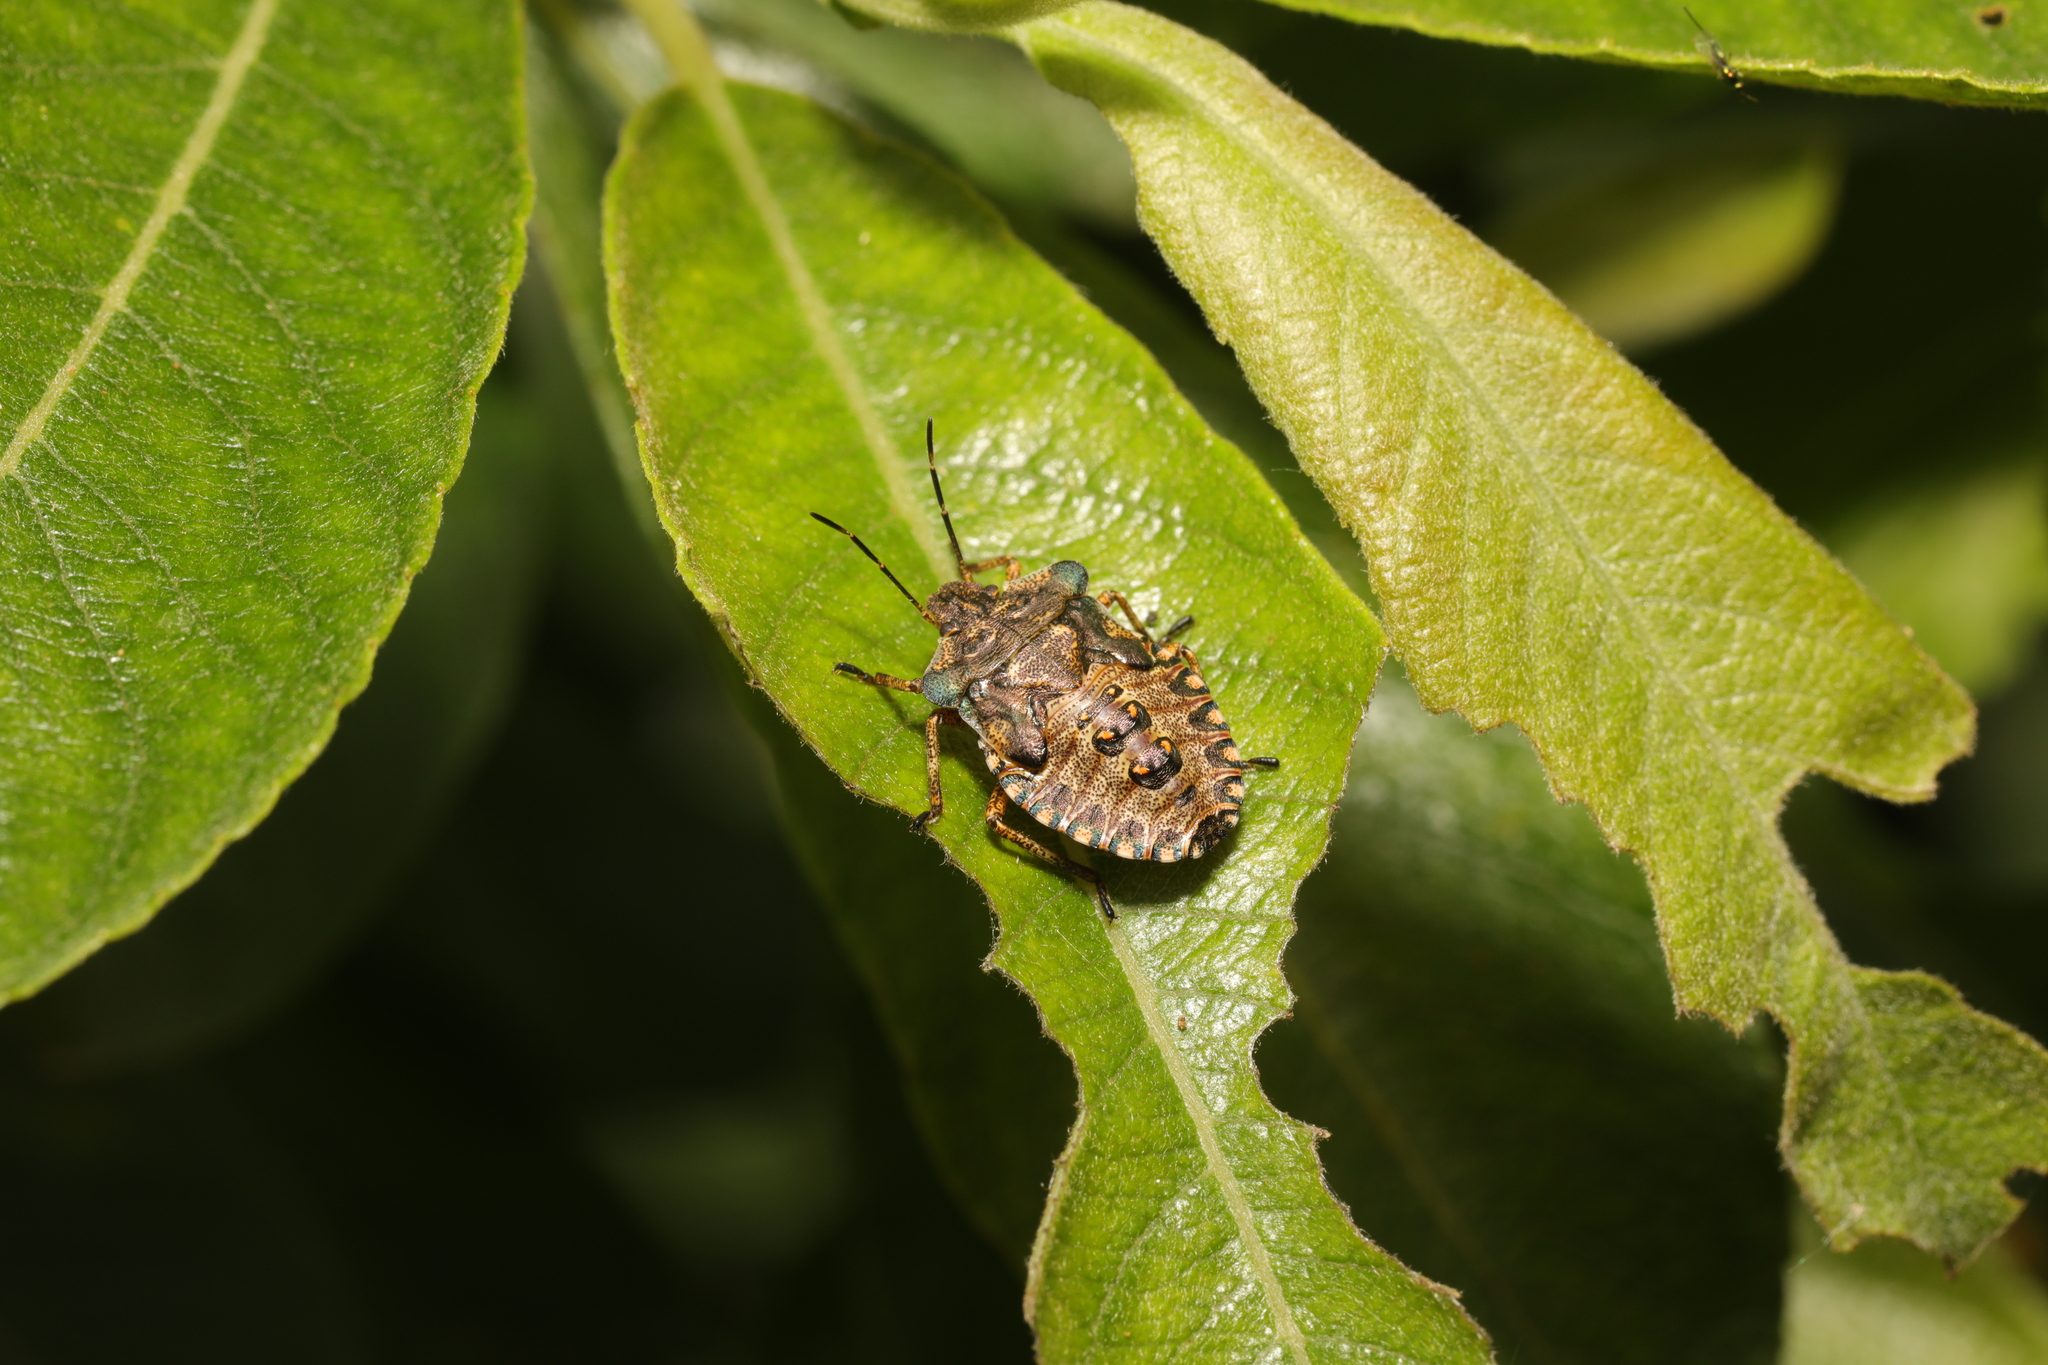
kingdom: Animalia
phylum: Arthropoda
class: Insecta
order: Hemiptera
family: Pentatomidae
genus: Pentatoma
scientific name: Pentatoma rufipes
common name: Forest bug
